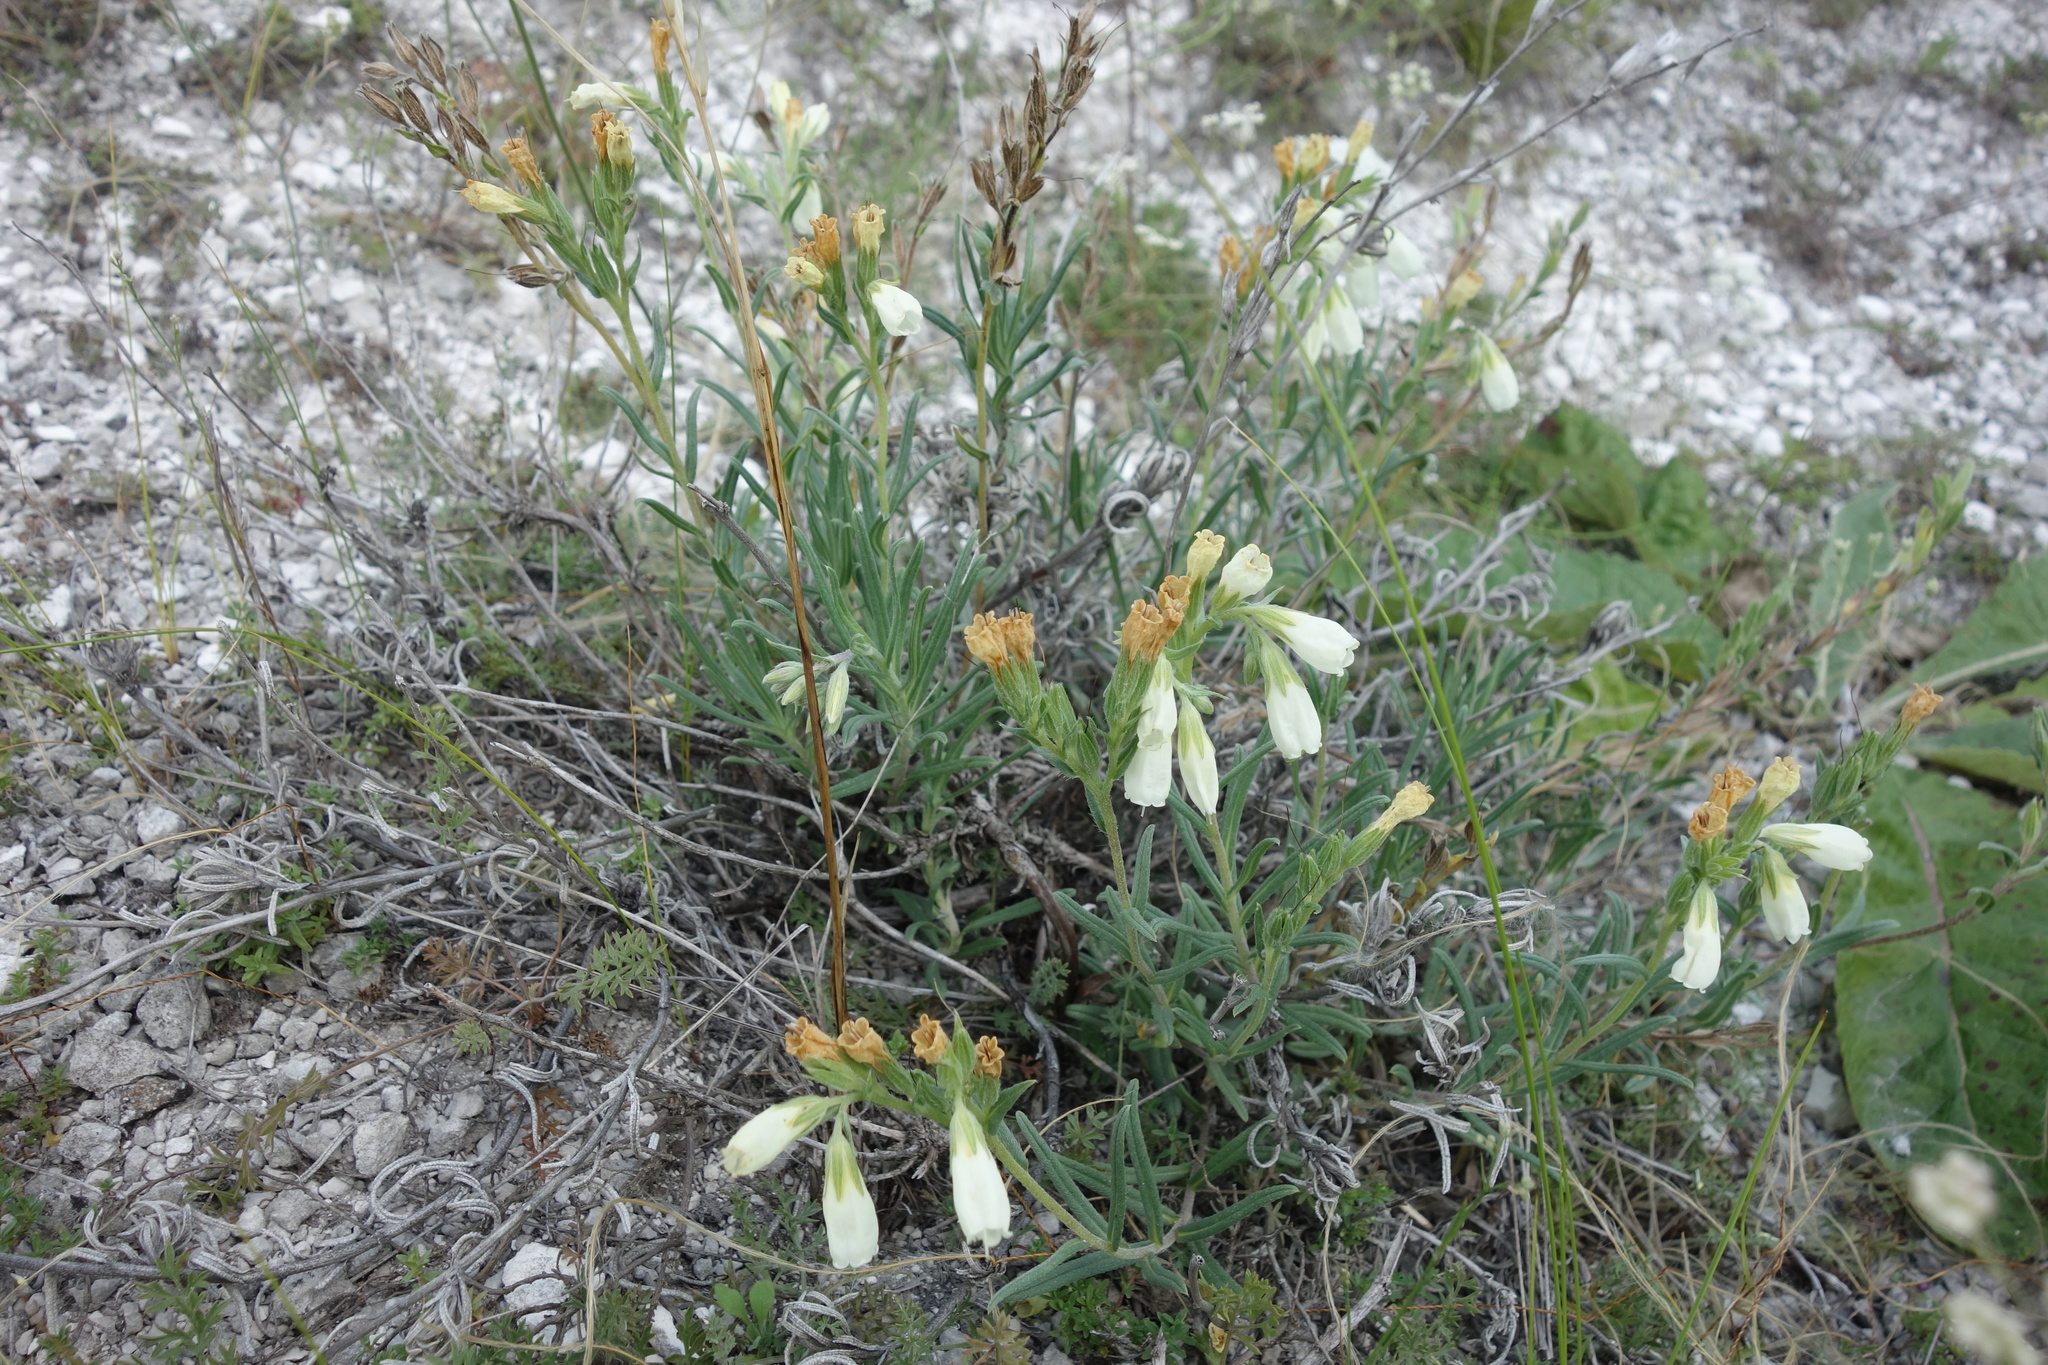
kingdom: Plantae
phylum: Tracheophyta
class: Magnoliopsida
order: Boraginales
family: Boraginaceae
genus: Onosma
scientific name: Onosma simplicissima
